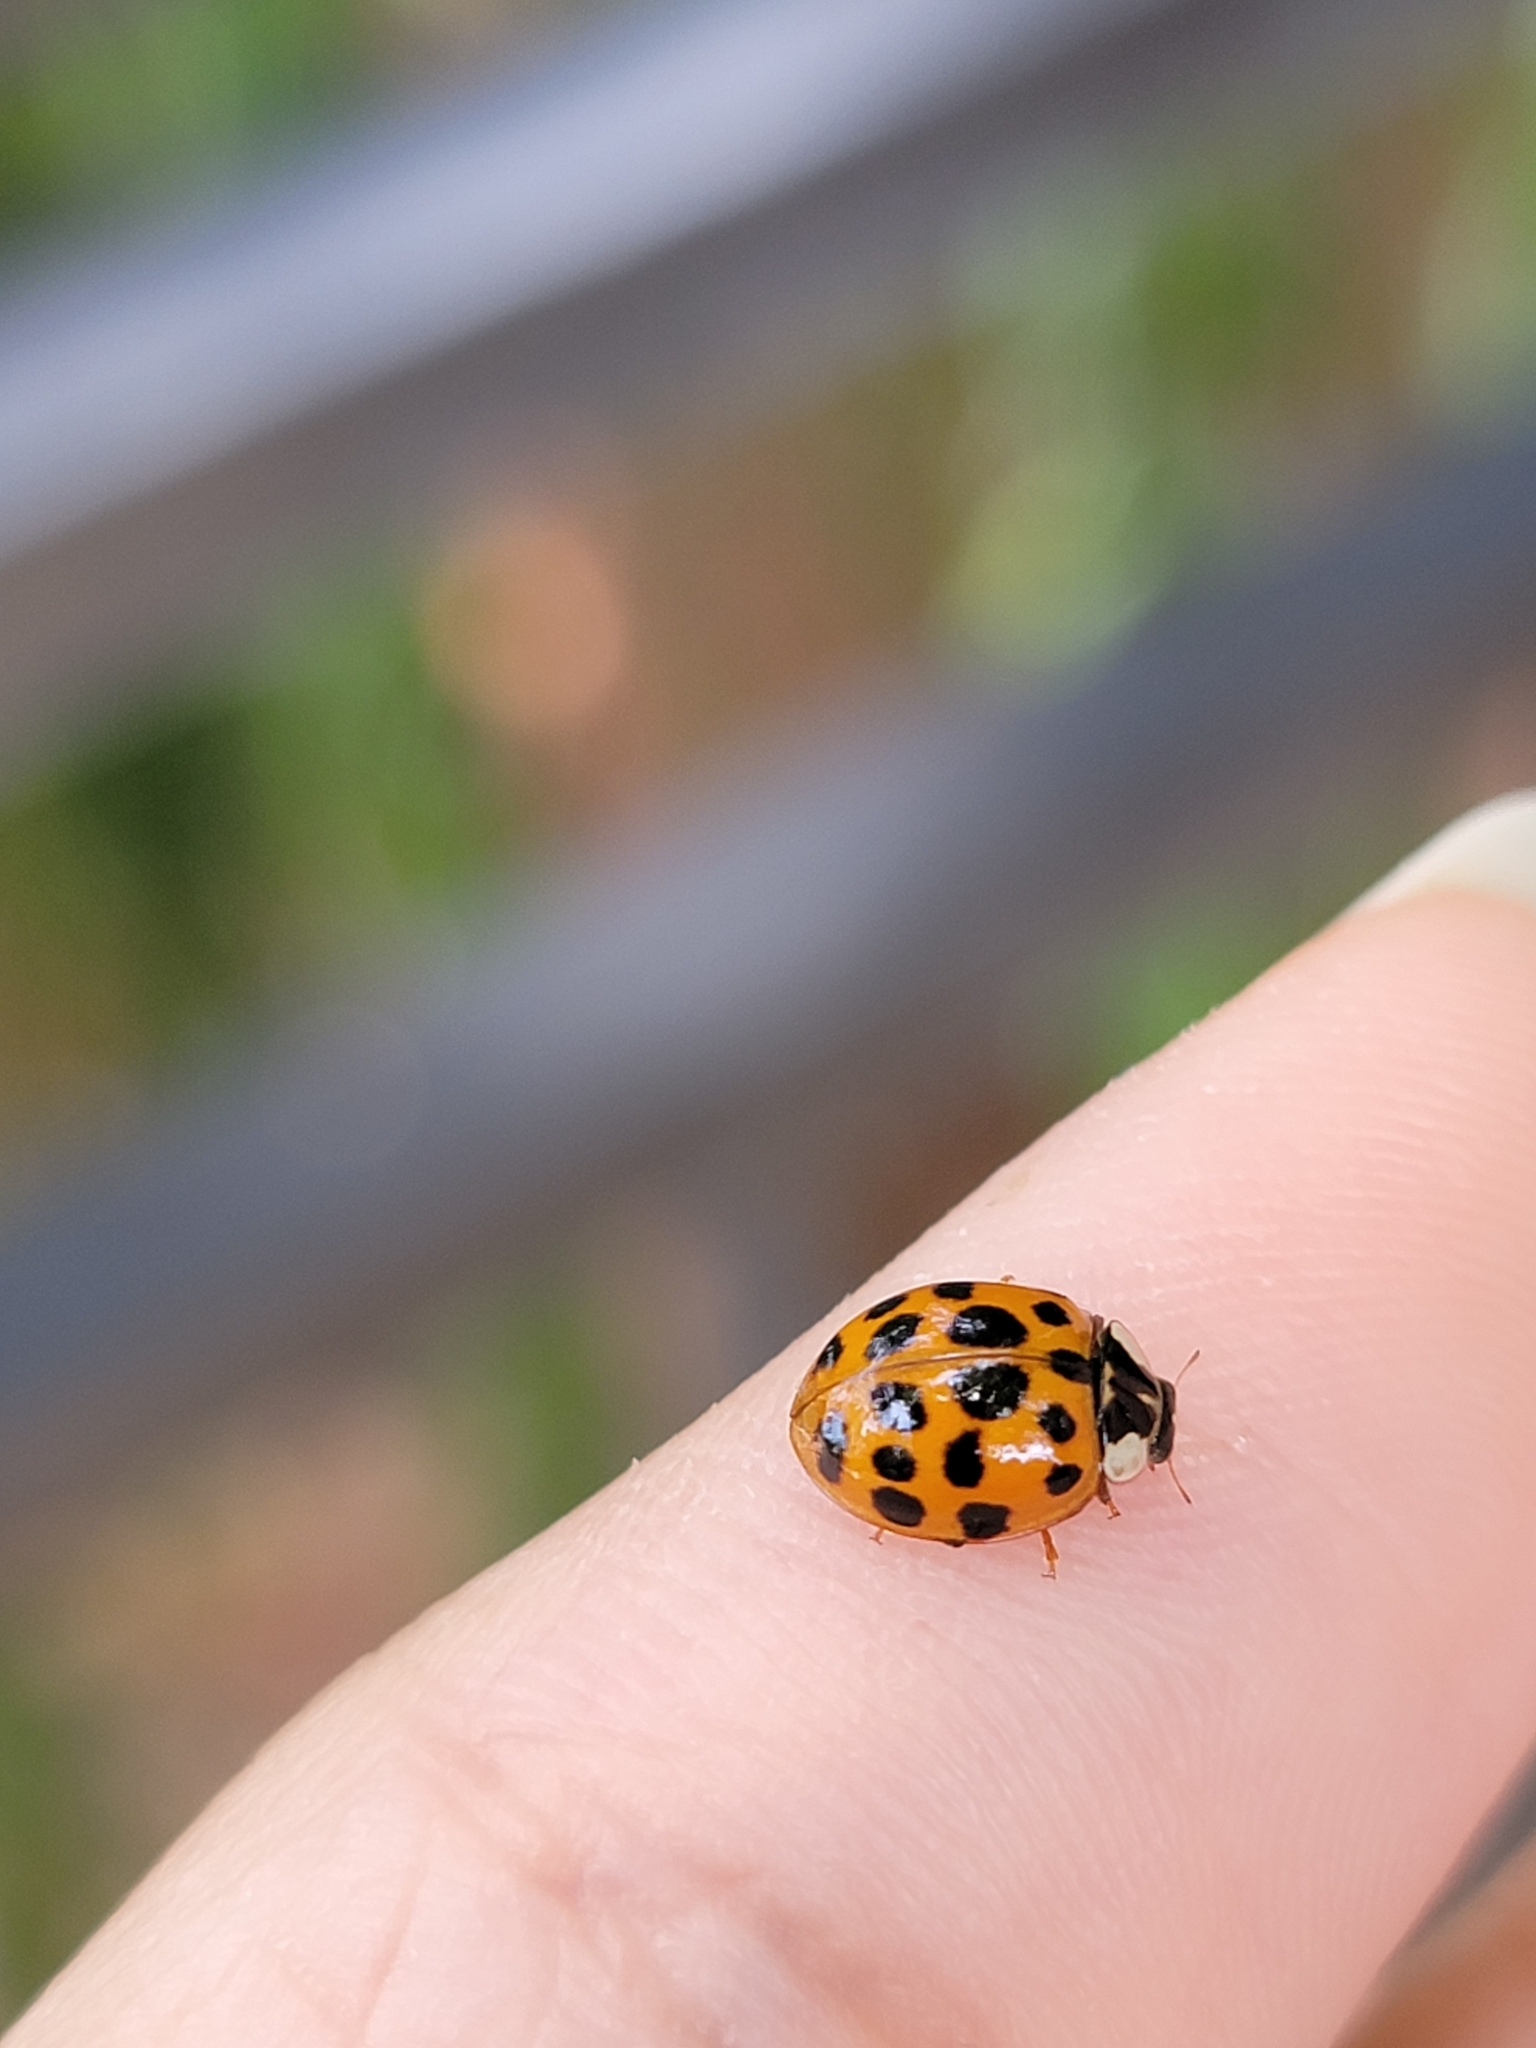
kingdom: Animalia
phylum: Arthropoda
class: Insecta
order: Coleoptera
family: Coccinellidae
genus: Harmonia
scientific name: Harmonia axyridis
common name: Harlequin ladybird
